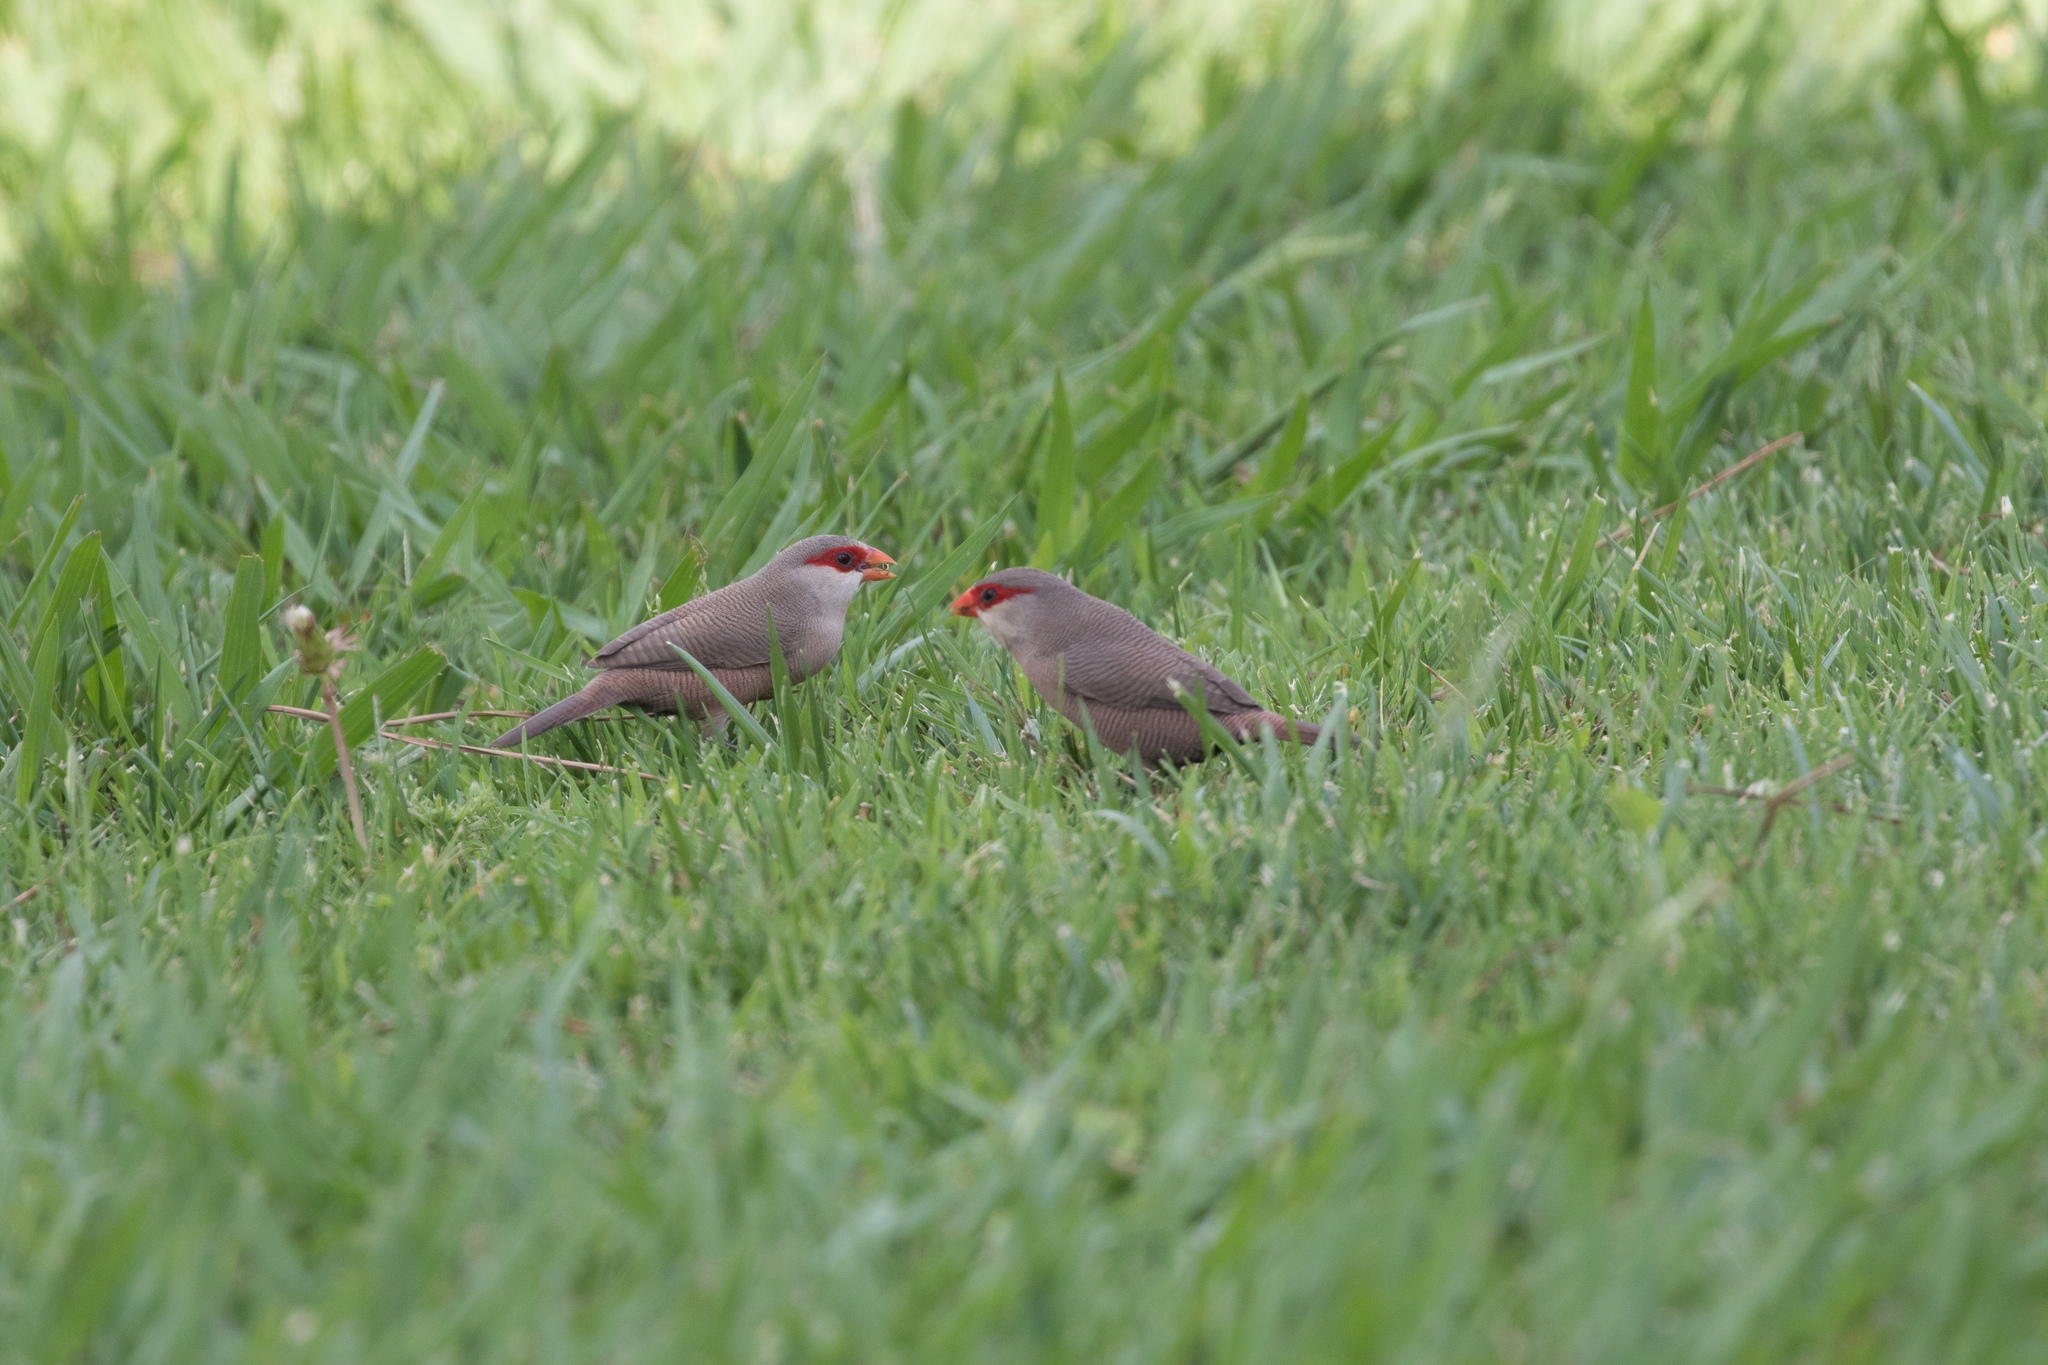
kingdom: Animalia
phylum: Chordata
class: Aves
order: Passeriformes
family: Estrildidae
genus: Estrilda
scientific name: Estrilda astrild
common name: Common waxbill
